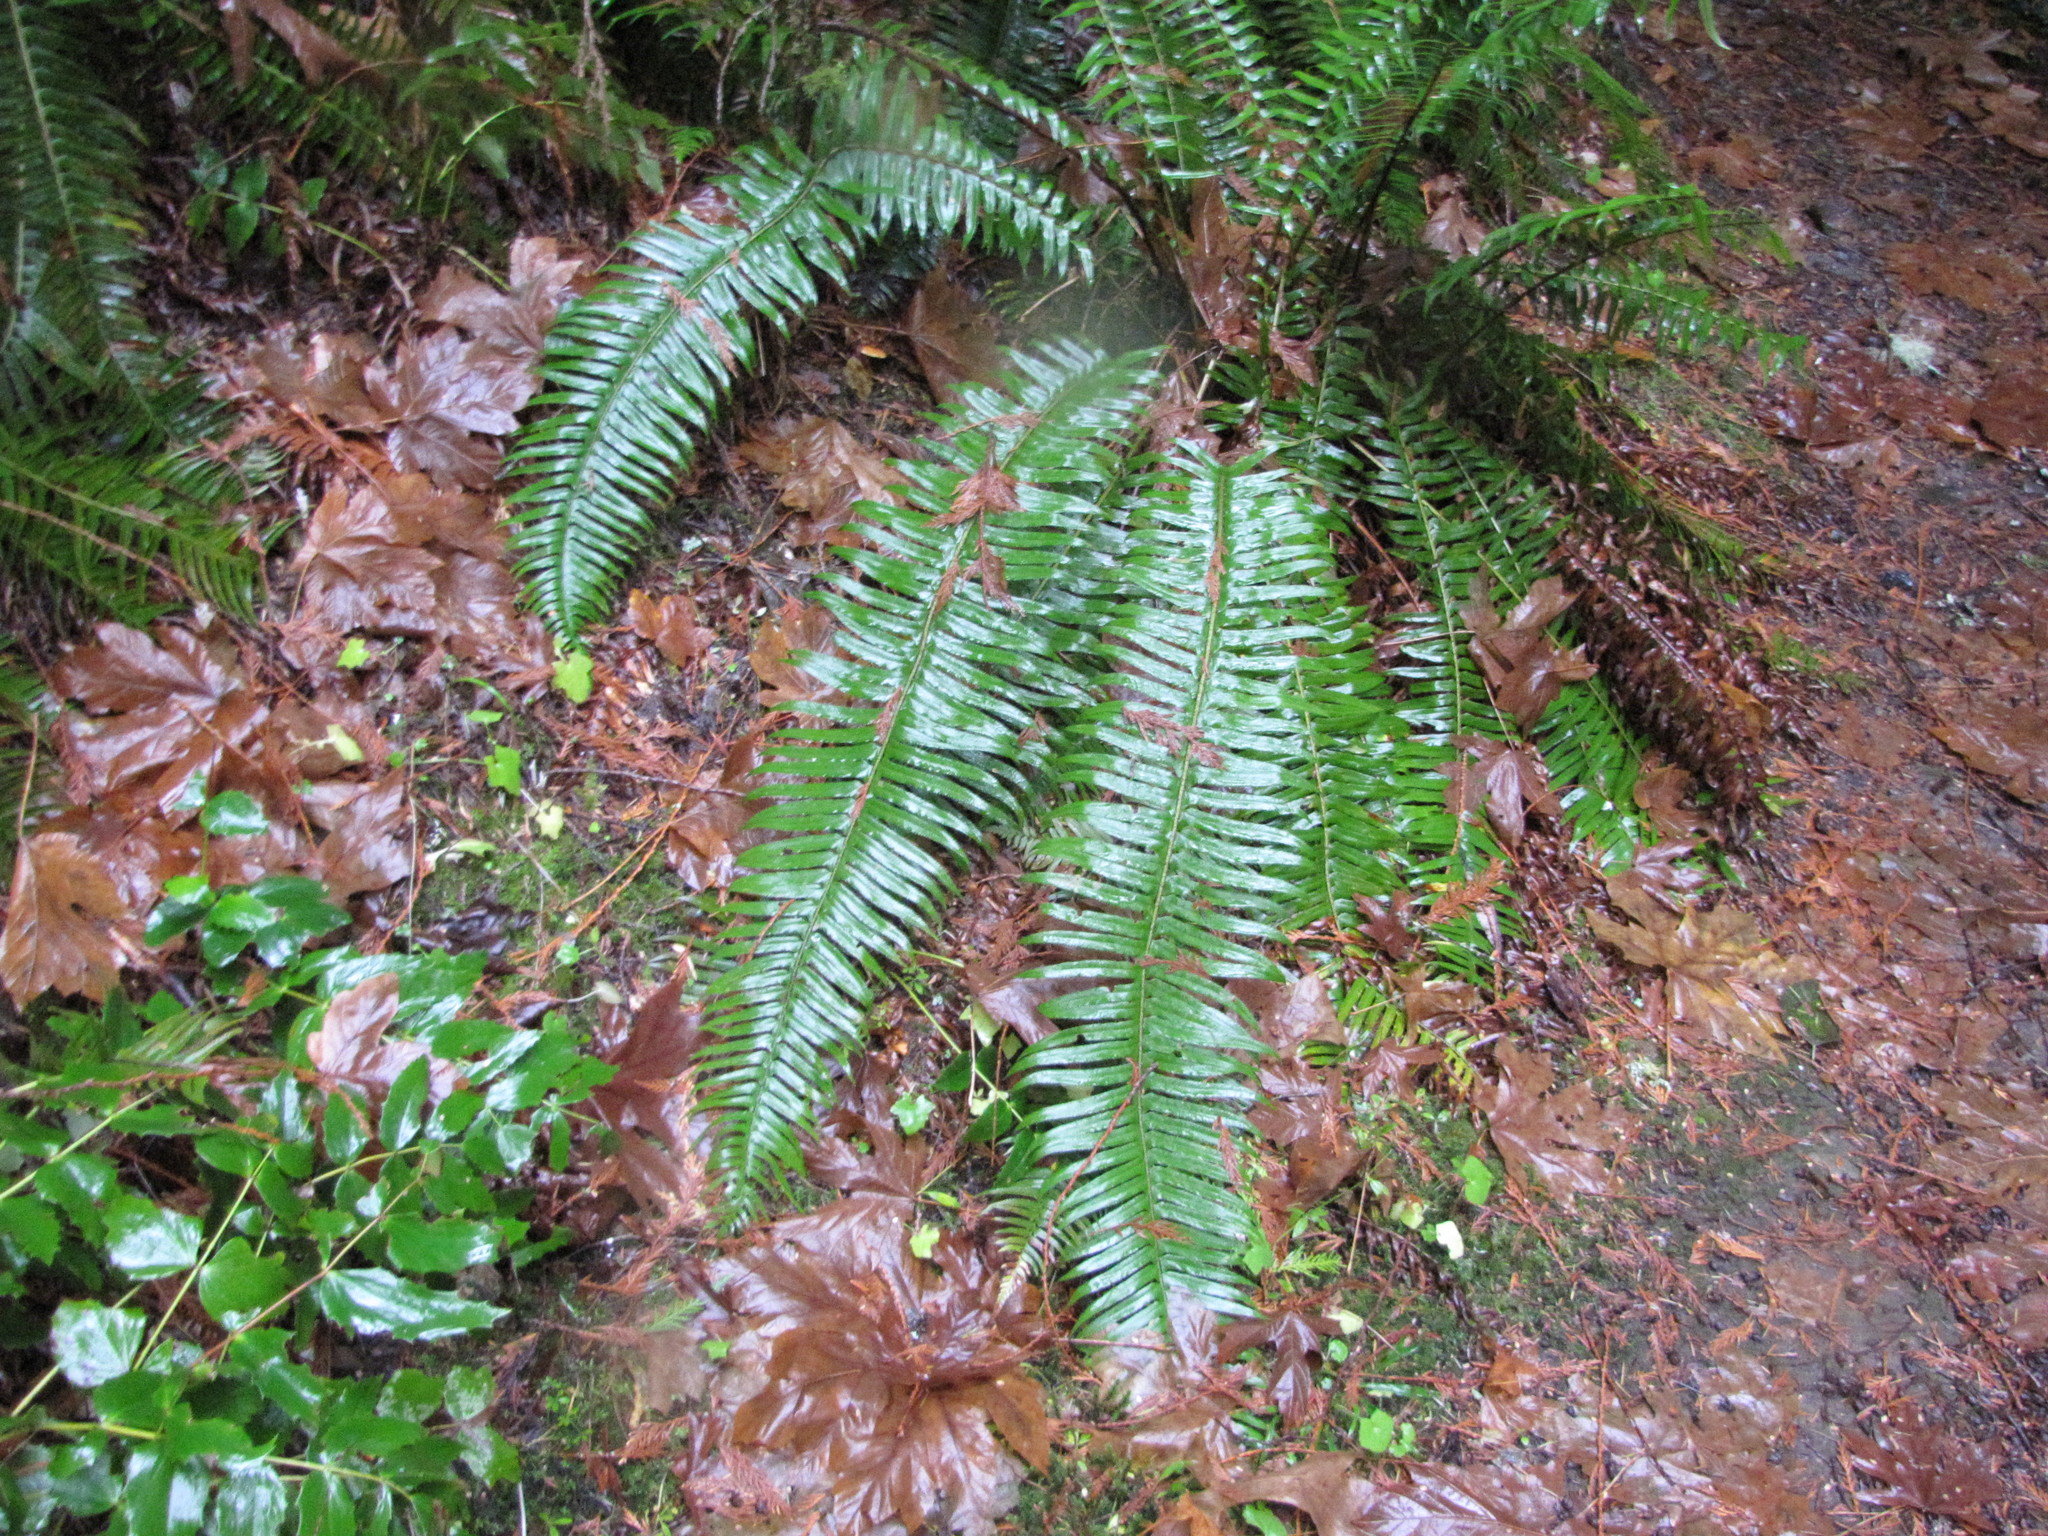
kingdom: Plantae
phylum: Tracheophyta
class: Polypodiopsida
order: Polypodiales
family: Dryopteridaceae
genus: Polystichum
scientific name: Polystichum munitum
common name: Western sword-fern
